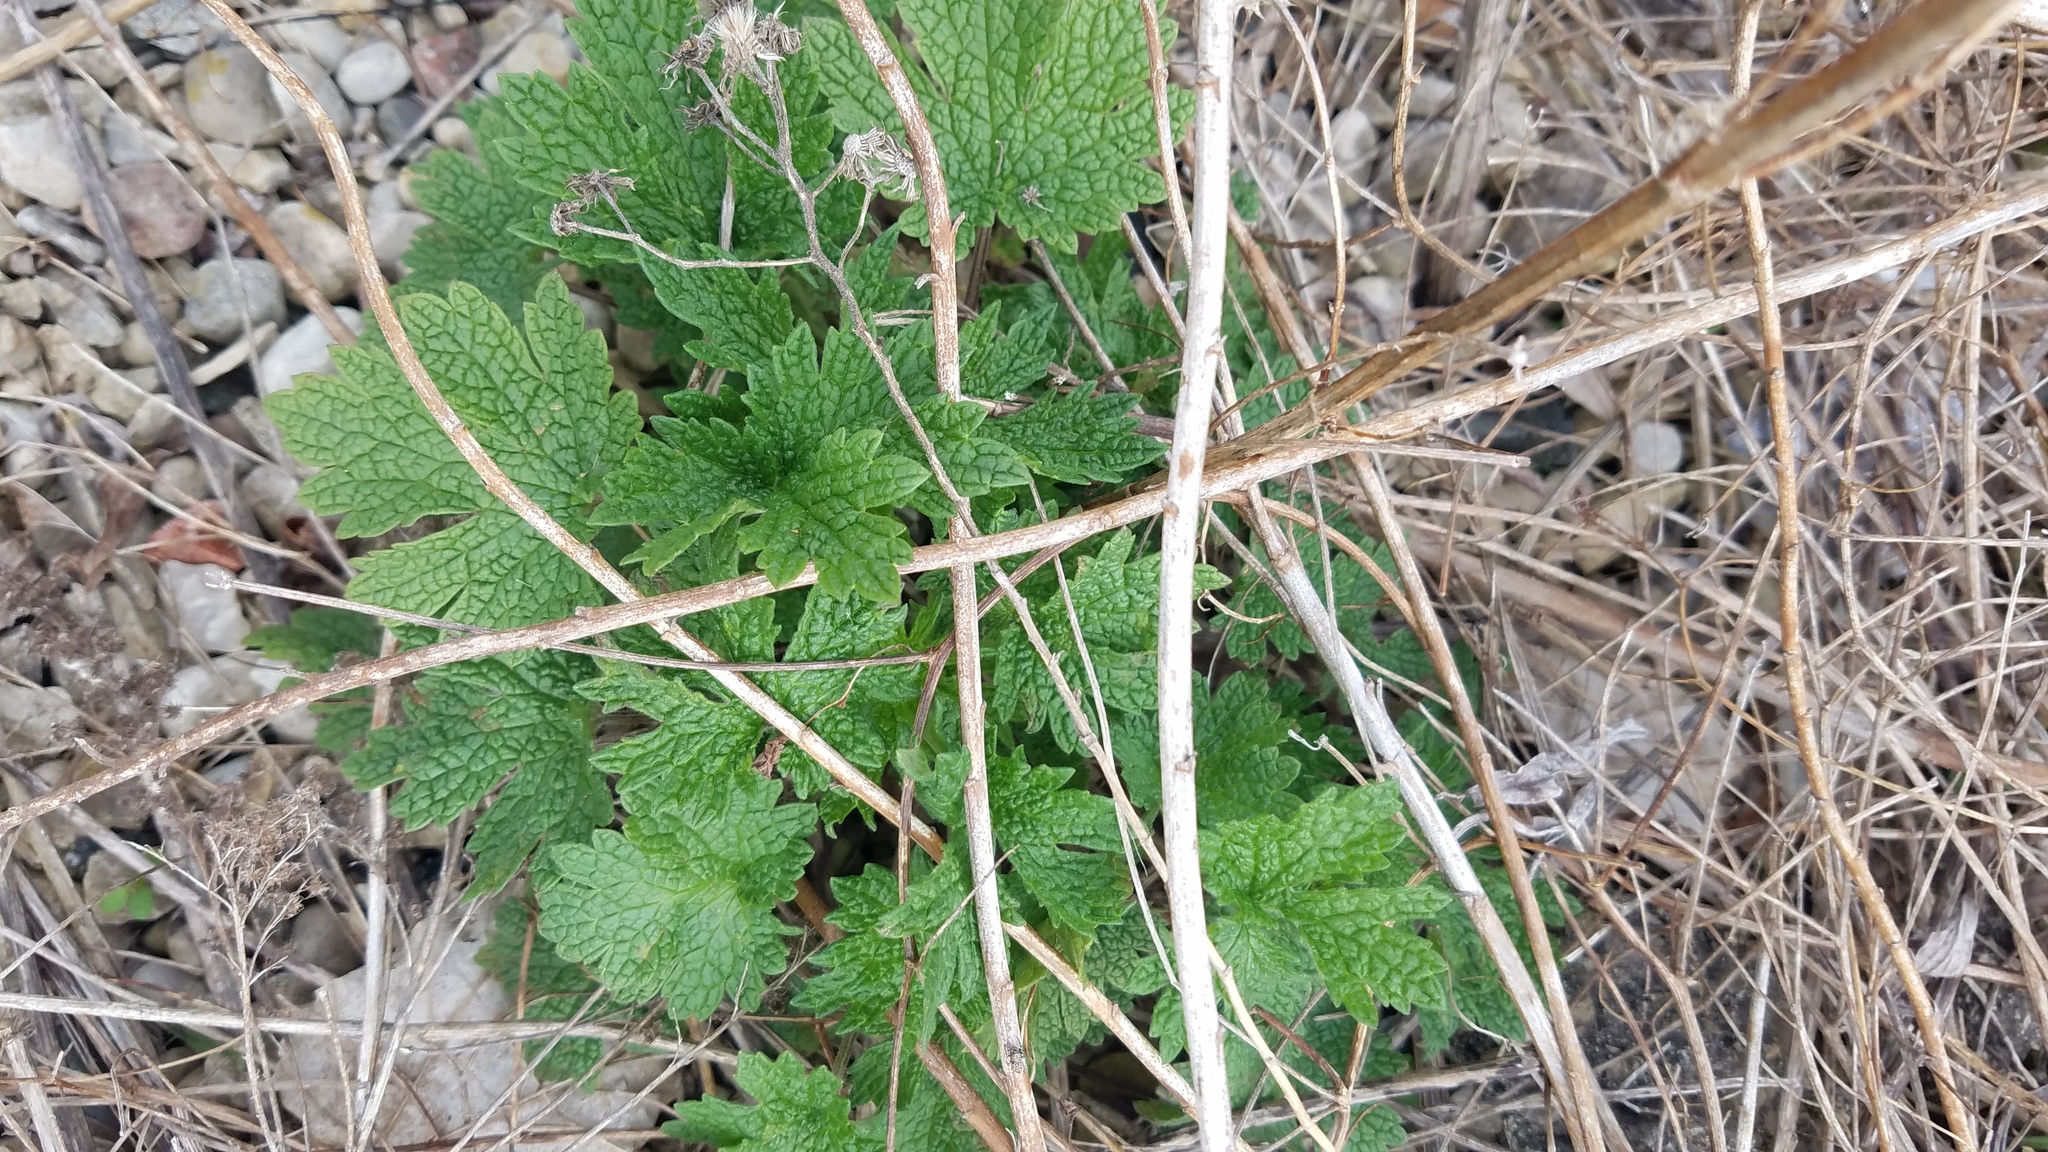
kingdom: Plantae
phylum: Tracheophyta
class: Magnoliopsida
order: Lamiales
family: Lamiaceae
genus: Leonurus
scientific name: Leonurus cardiaca
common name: Motherwort
